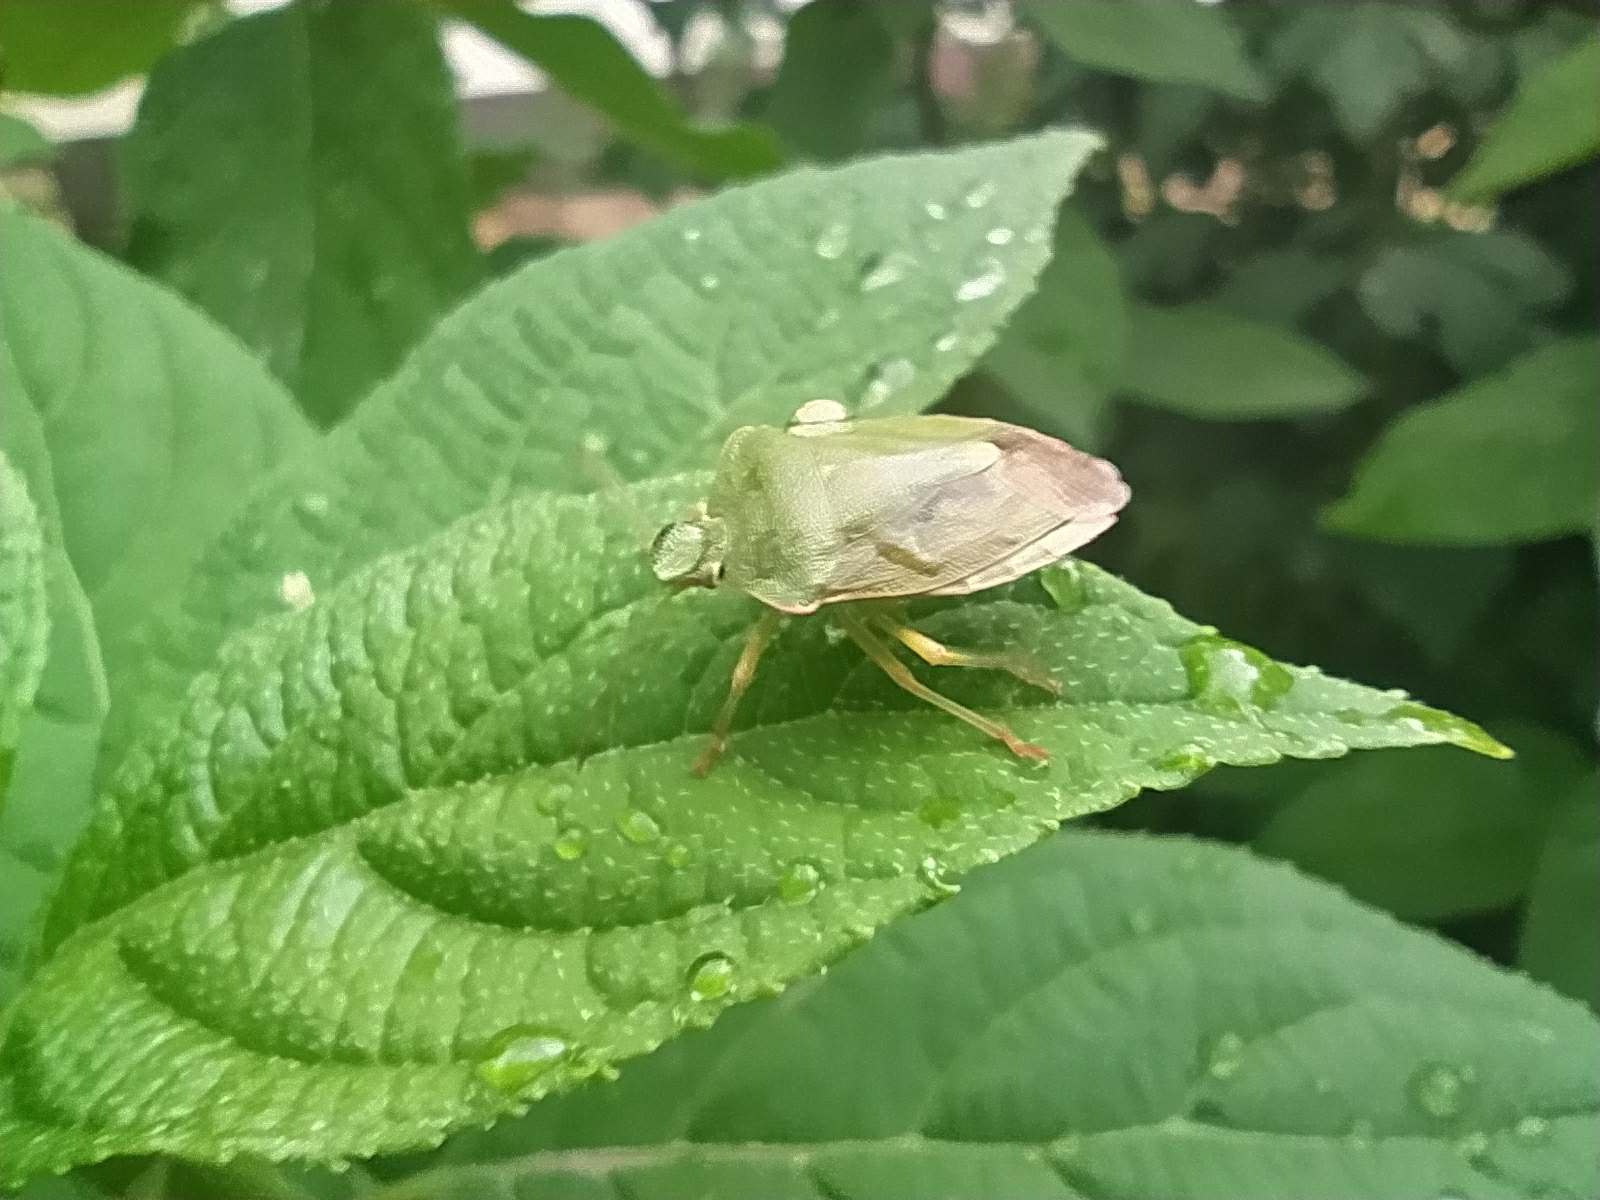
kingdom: Animalia
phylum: Arthropoda
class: Insecta
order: Hemiptera
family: Pentatomidae
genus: Palomena
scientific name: Palomena prasina
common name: Green shieldbug
